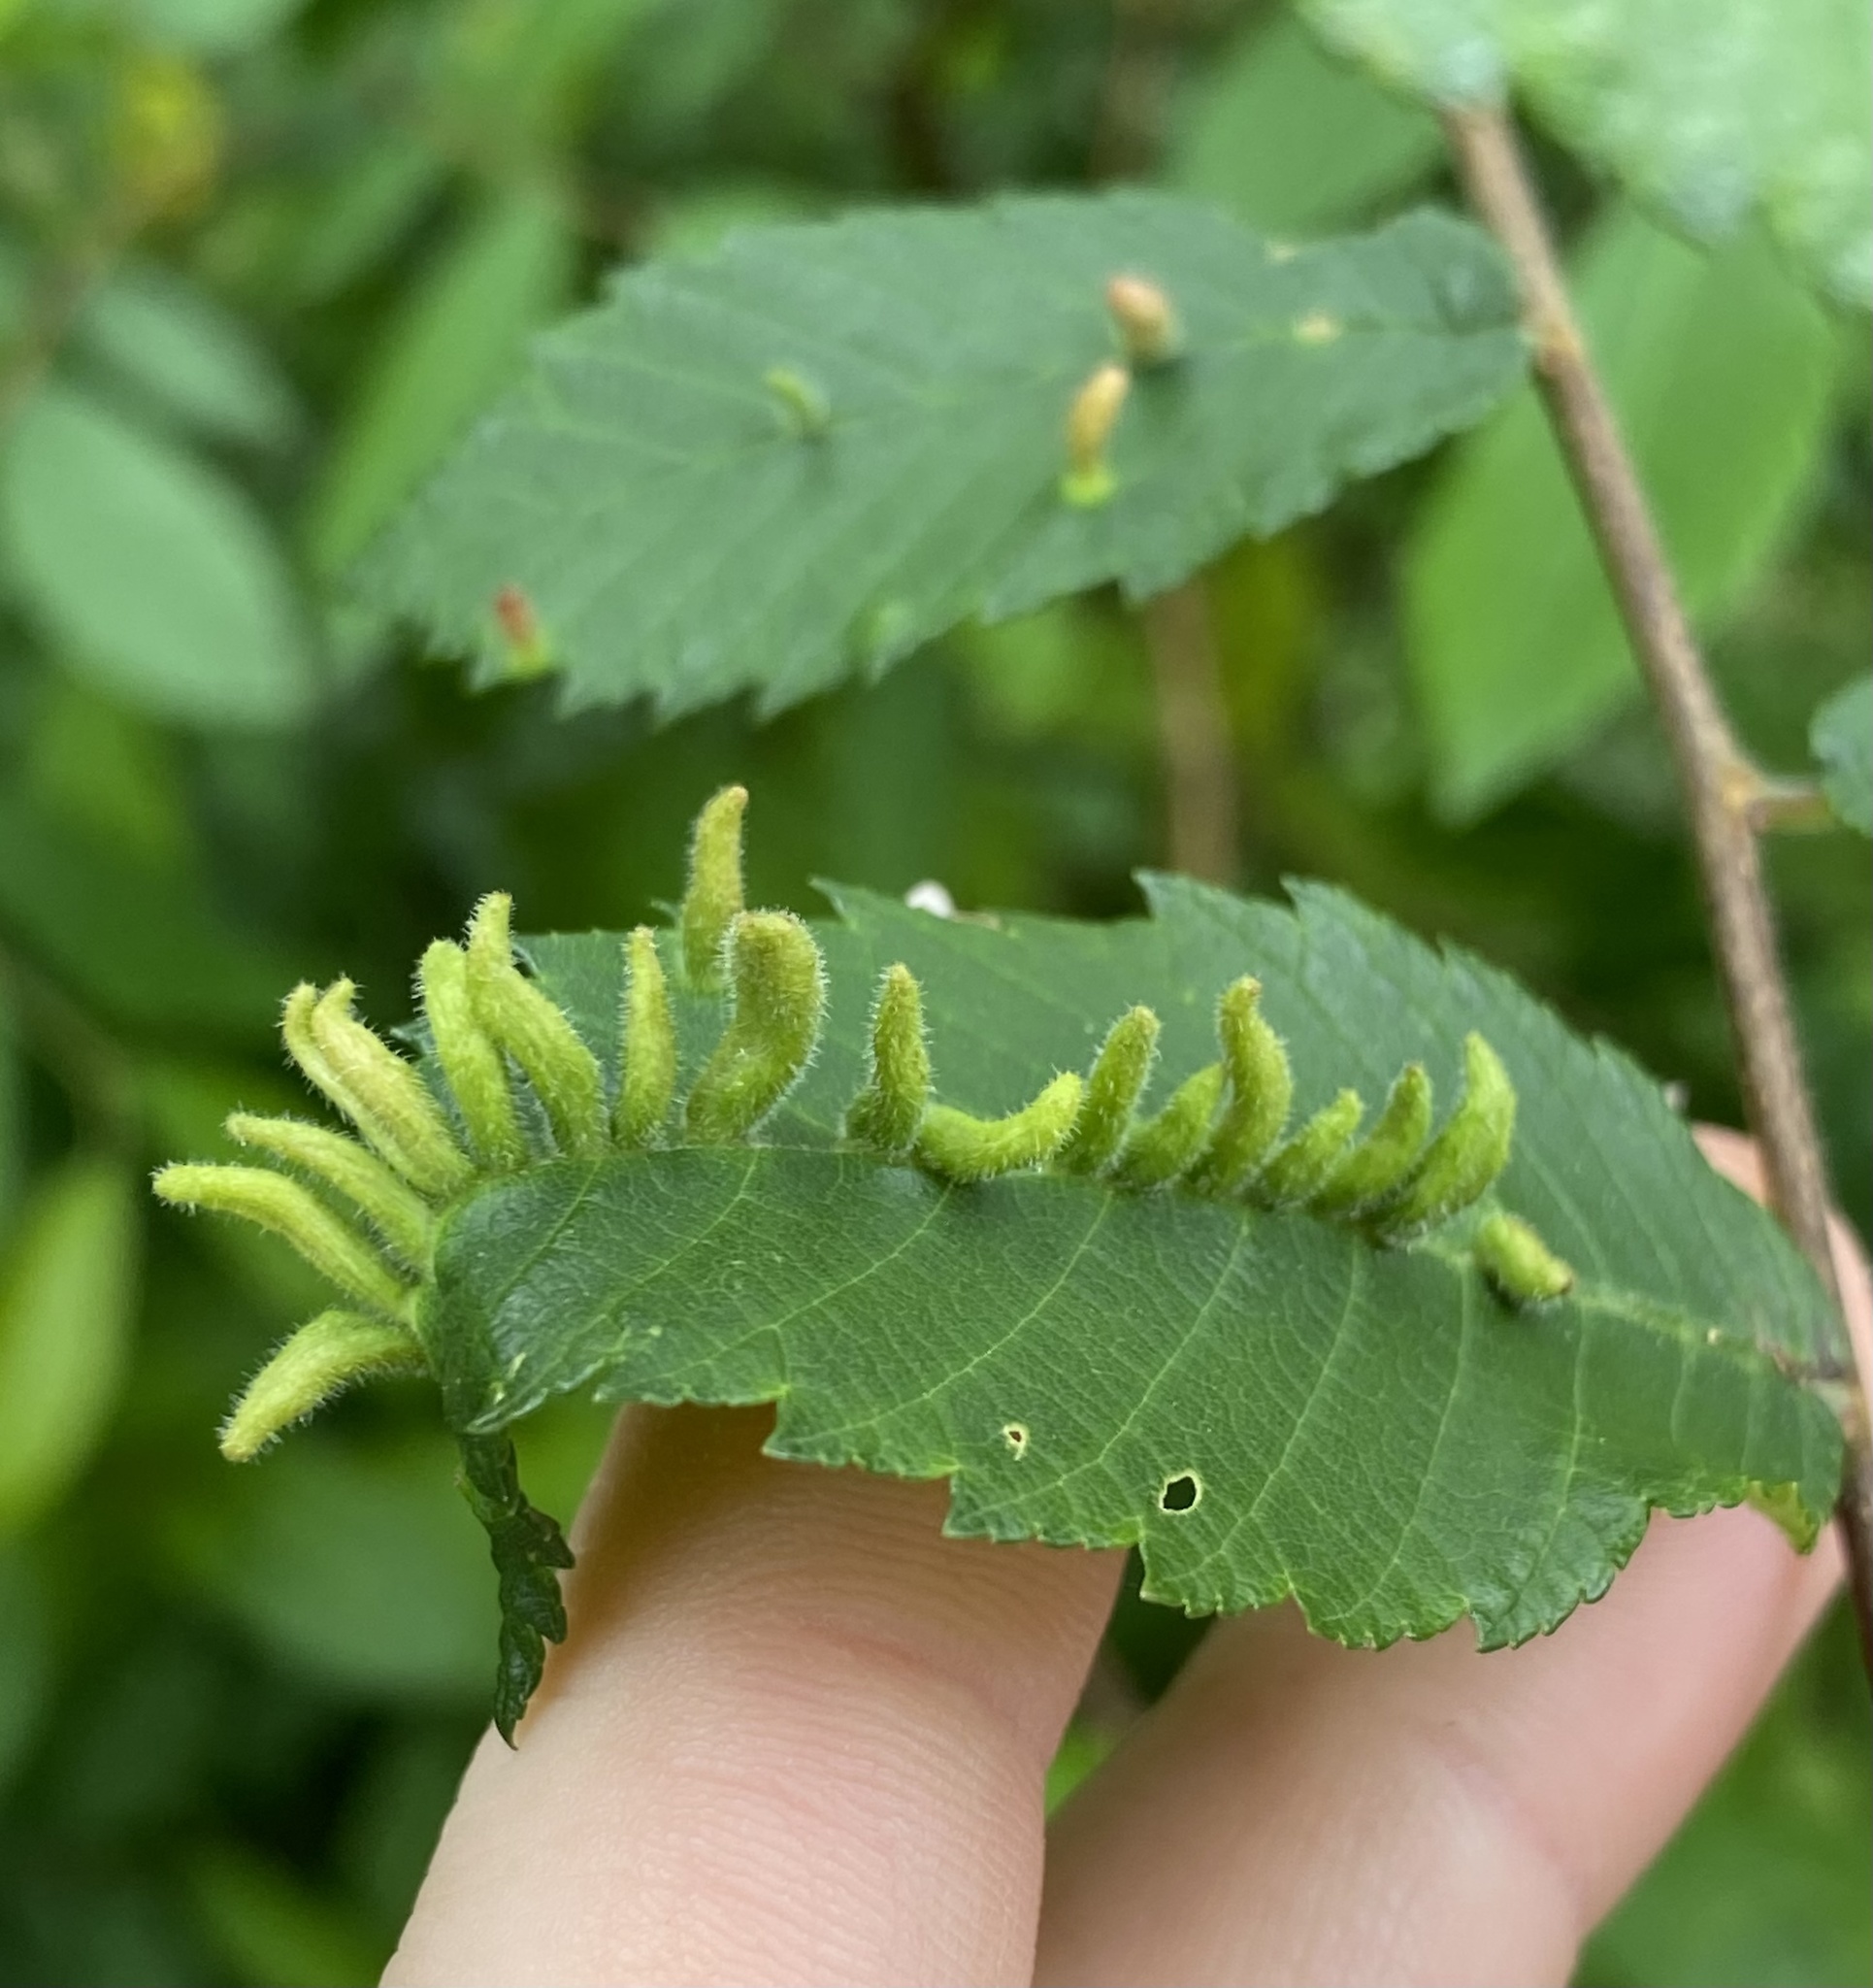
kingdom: Animalia
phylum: Arthropoda
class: Arachnida
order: Trombidiformes
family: Eriophyidae
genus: Aceria
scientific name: Aceria
